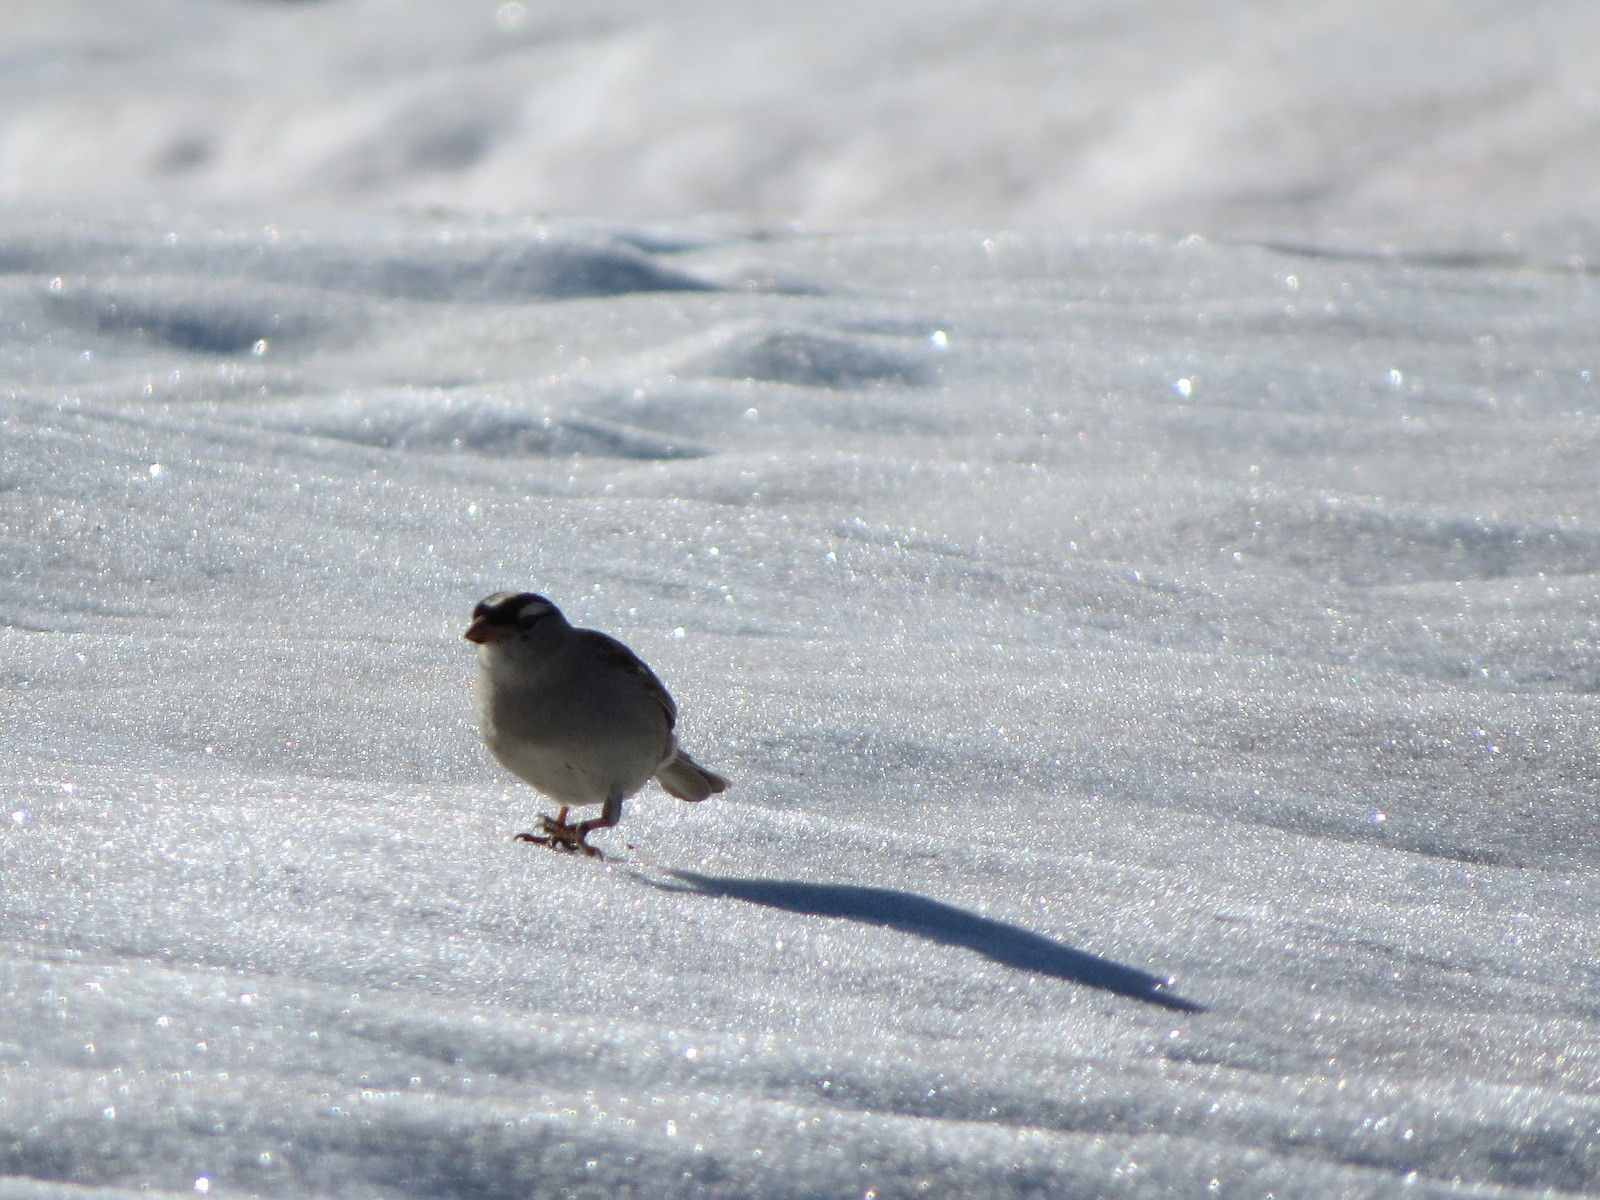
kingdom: Animalia
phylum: Chordata
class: Aves
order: Passeriformes
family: Passerellidae
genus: Zonotrichia
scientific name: Zonotrichia leucophrys
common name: White-crowned sparrow
